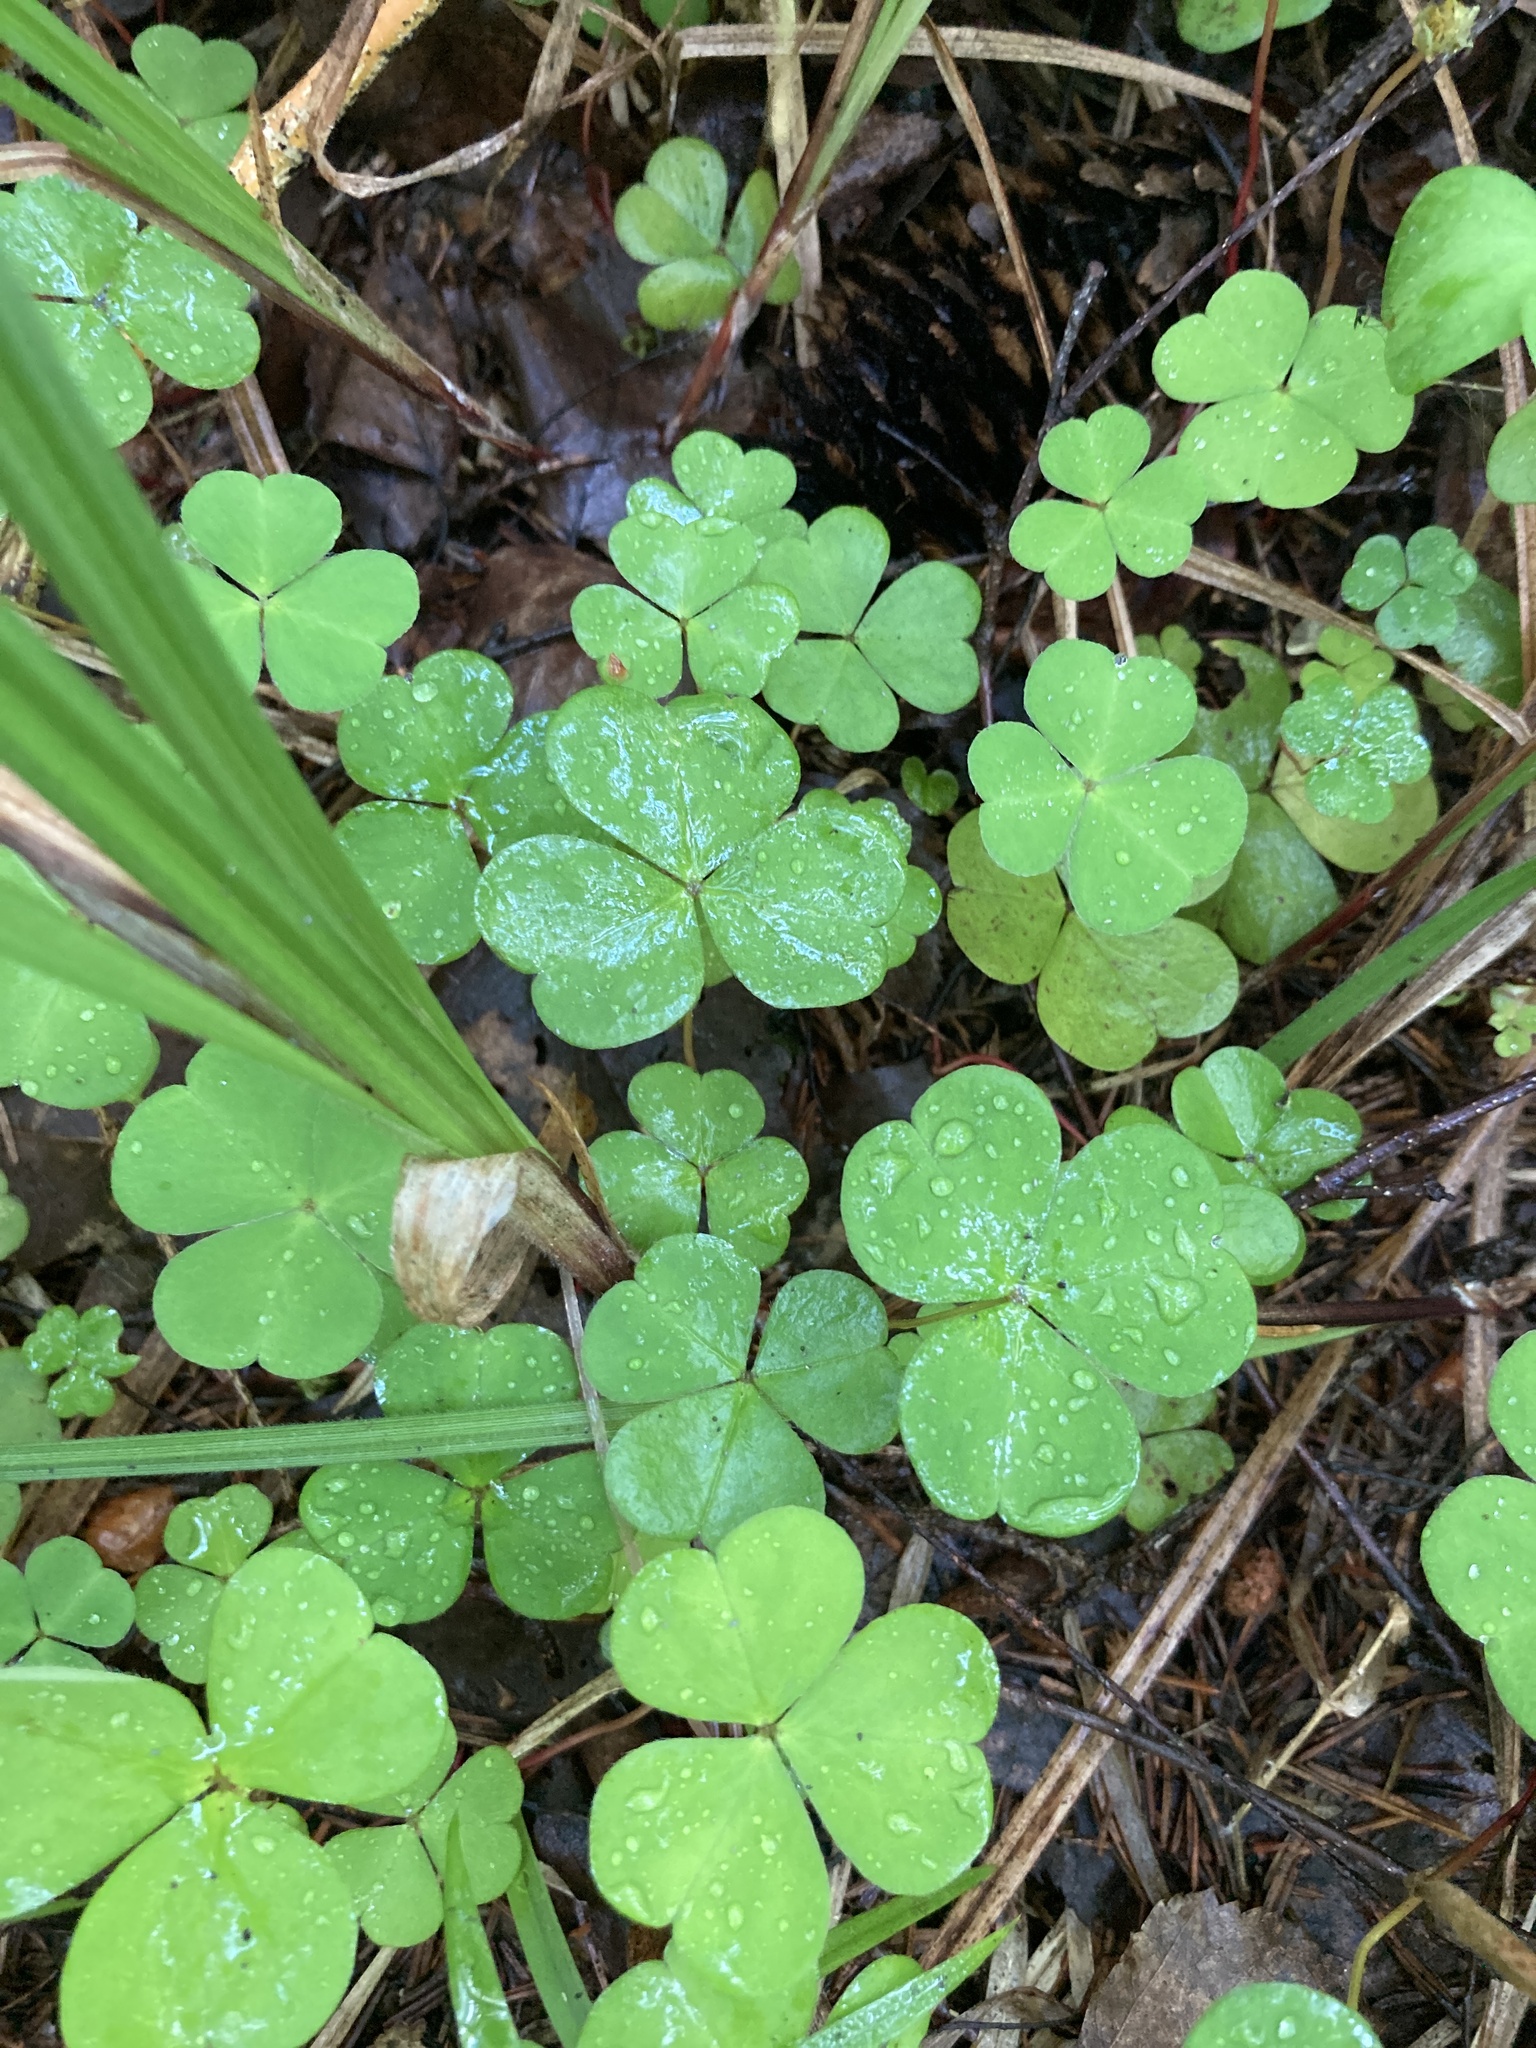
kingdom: Plantae
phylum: Tracheophyta
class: Magnoliopsida
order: Oxalidales
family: Oxalidaceae
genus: Oxalis
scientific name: Oxalis acetosella
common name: Wood-sorrel
